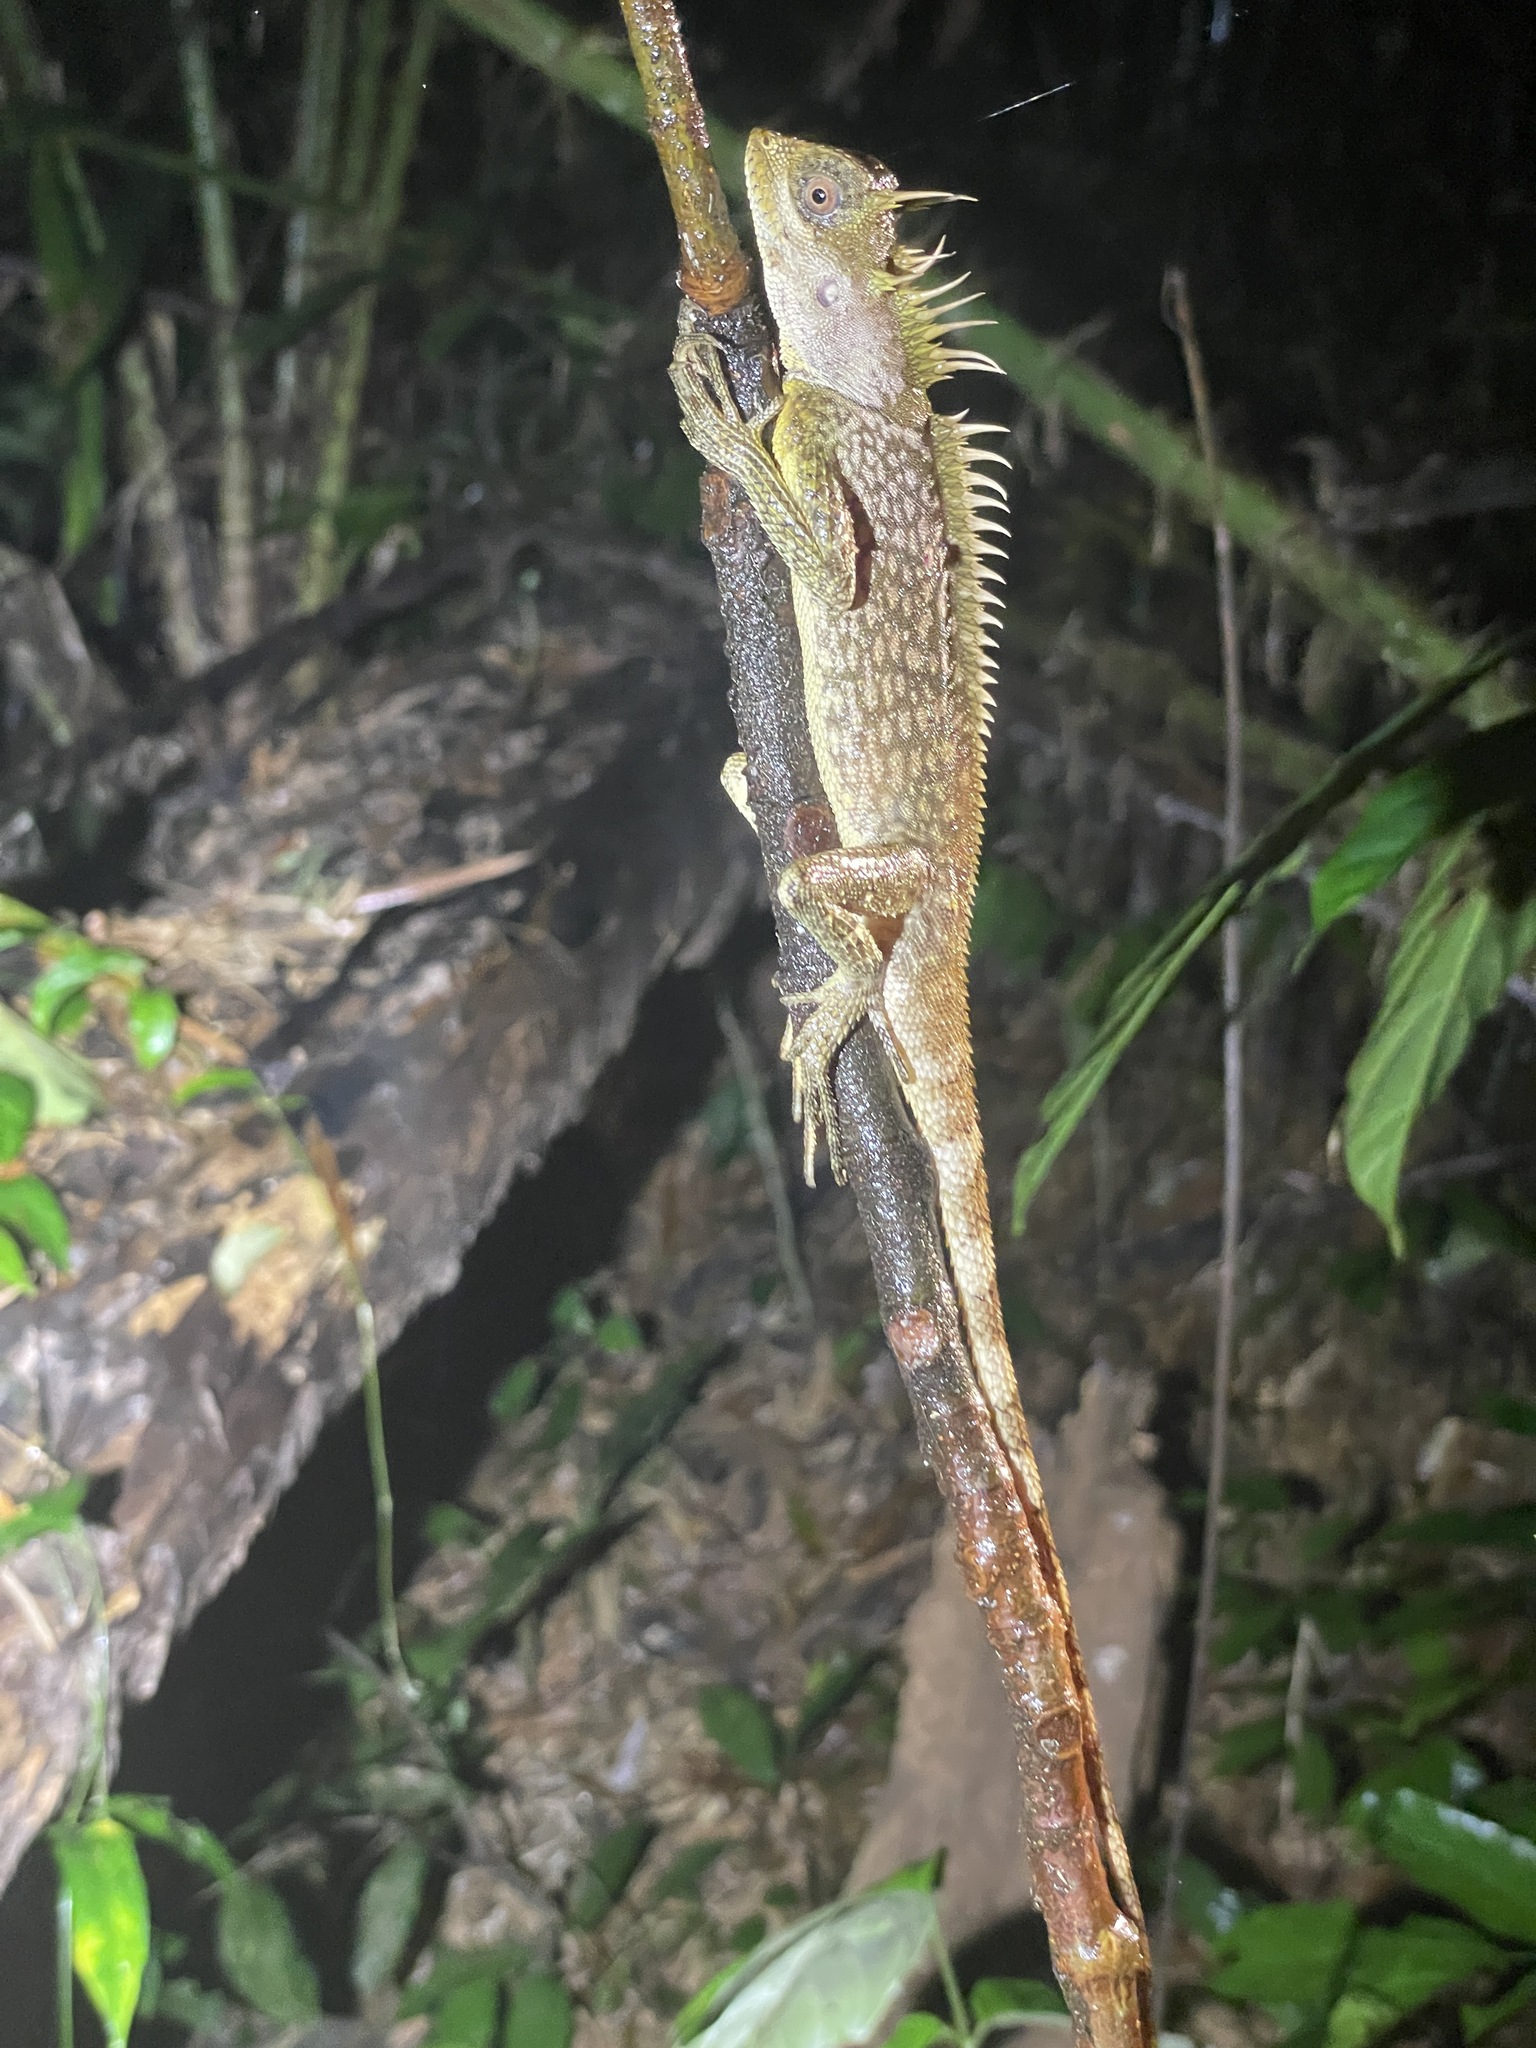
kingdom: Animalia
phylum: Chordata
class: Squamata
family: Agamidae
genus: Acanthosaura
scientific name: Acanthosaura phuketensis
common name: Phuket horned tree agamid
